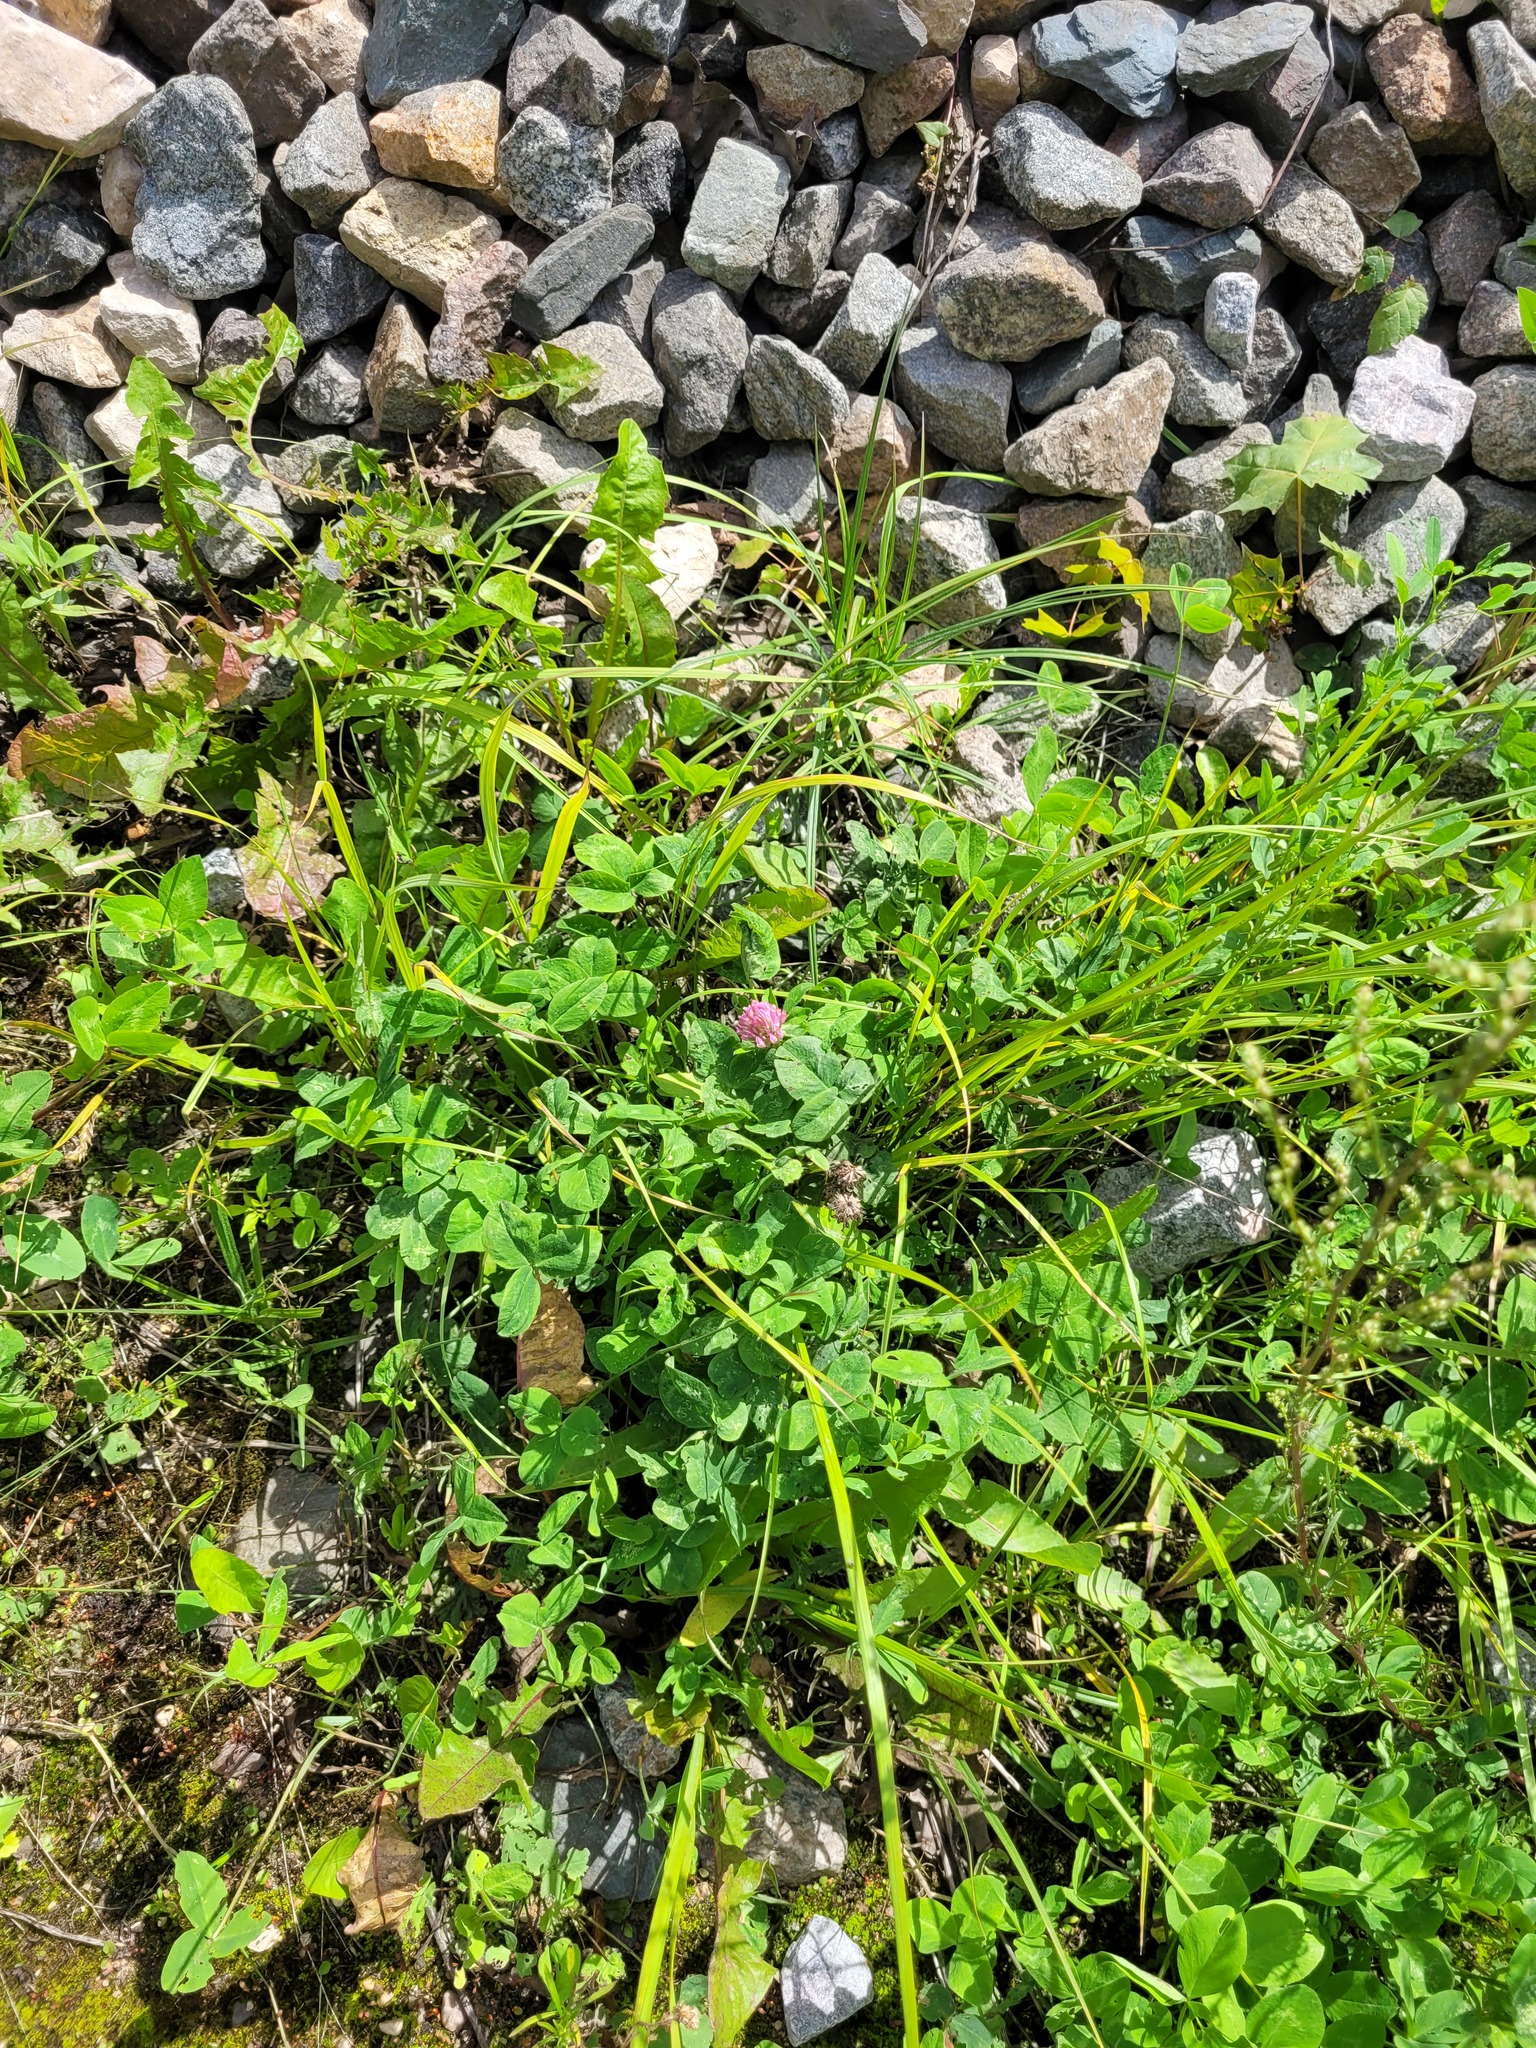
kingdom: Plantae
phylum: Tracheophyta
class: Magnoliopsida
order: Fabales
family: Fabaceae
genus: Trifolium
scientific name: Trifolium pratense
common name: Red clover
